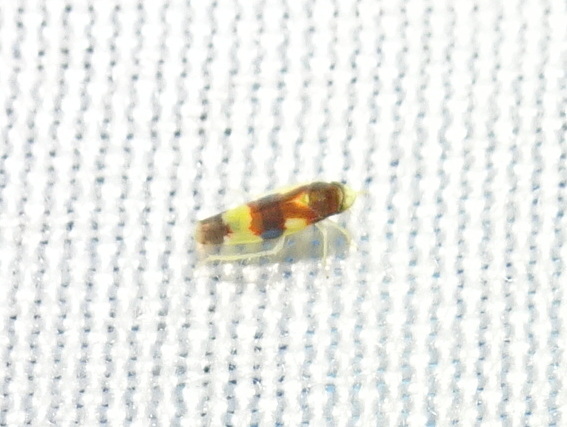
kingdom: Animalia
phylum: Arthropoda
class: Insecta
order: Hemiptera
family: Cicadellidae
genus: Erythroneura
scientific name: Erythroneura bistrata
